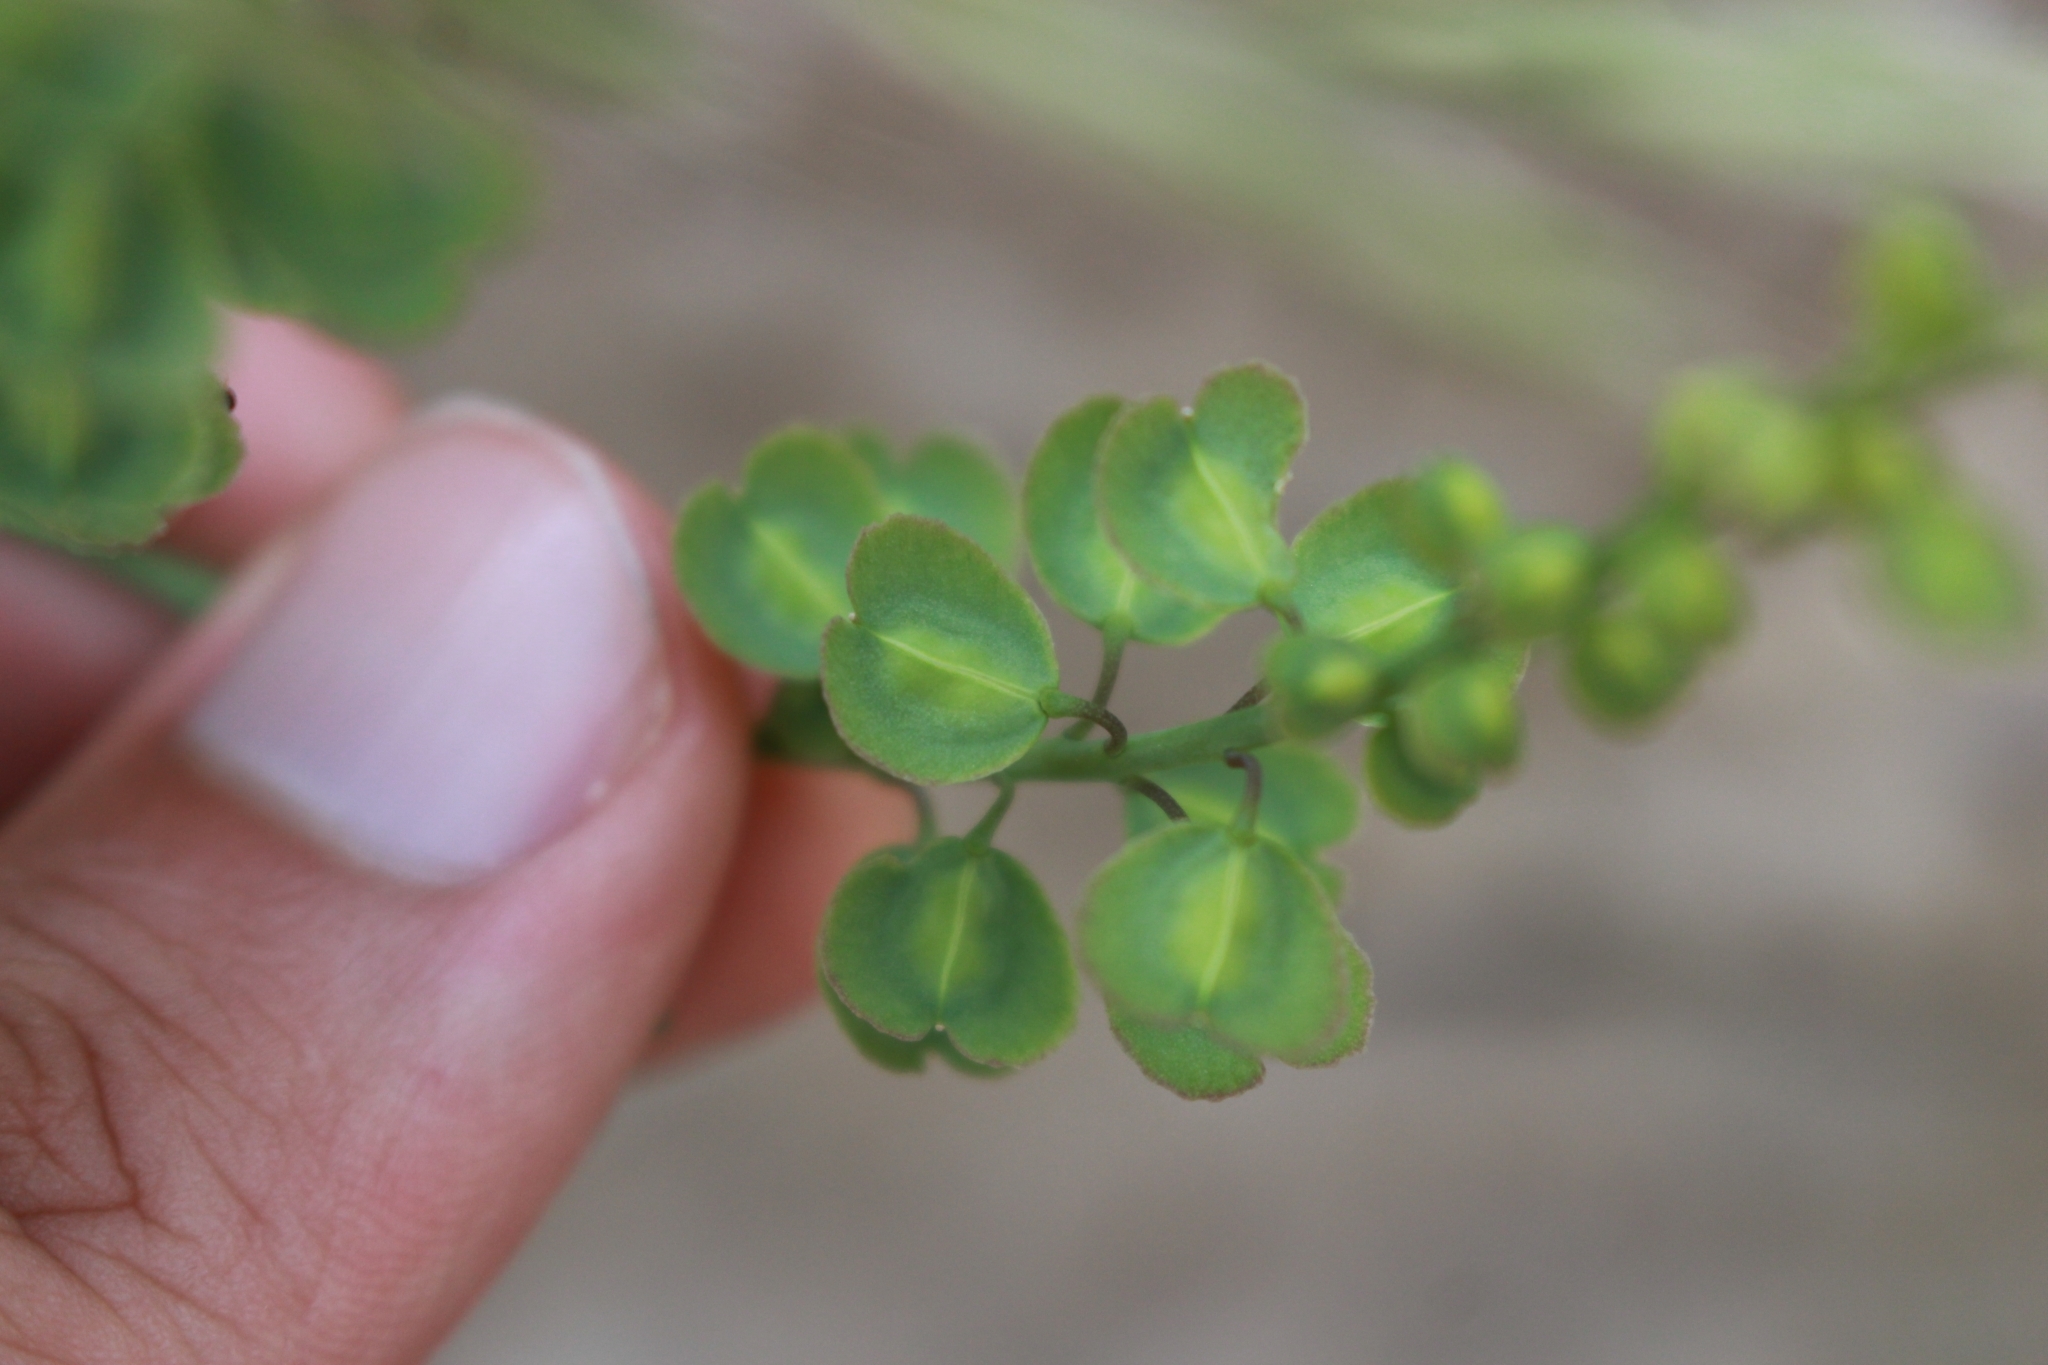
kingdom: Plantae
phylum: Tracheophyta
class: Magnoliopsida
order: Brassicales
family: Brassicaceae
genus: Aethionema
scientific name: Aethionema saxatile
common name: Burnt candytuft
